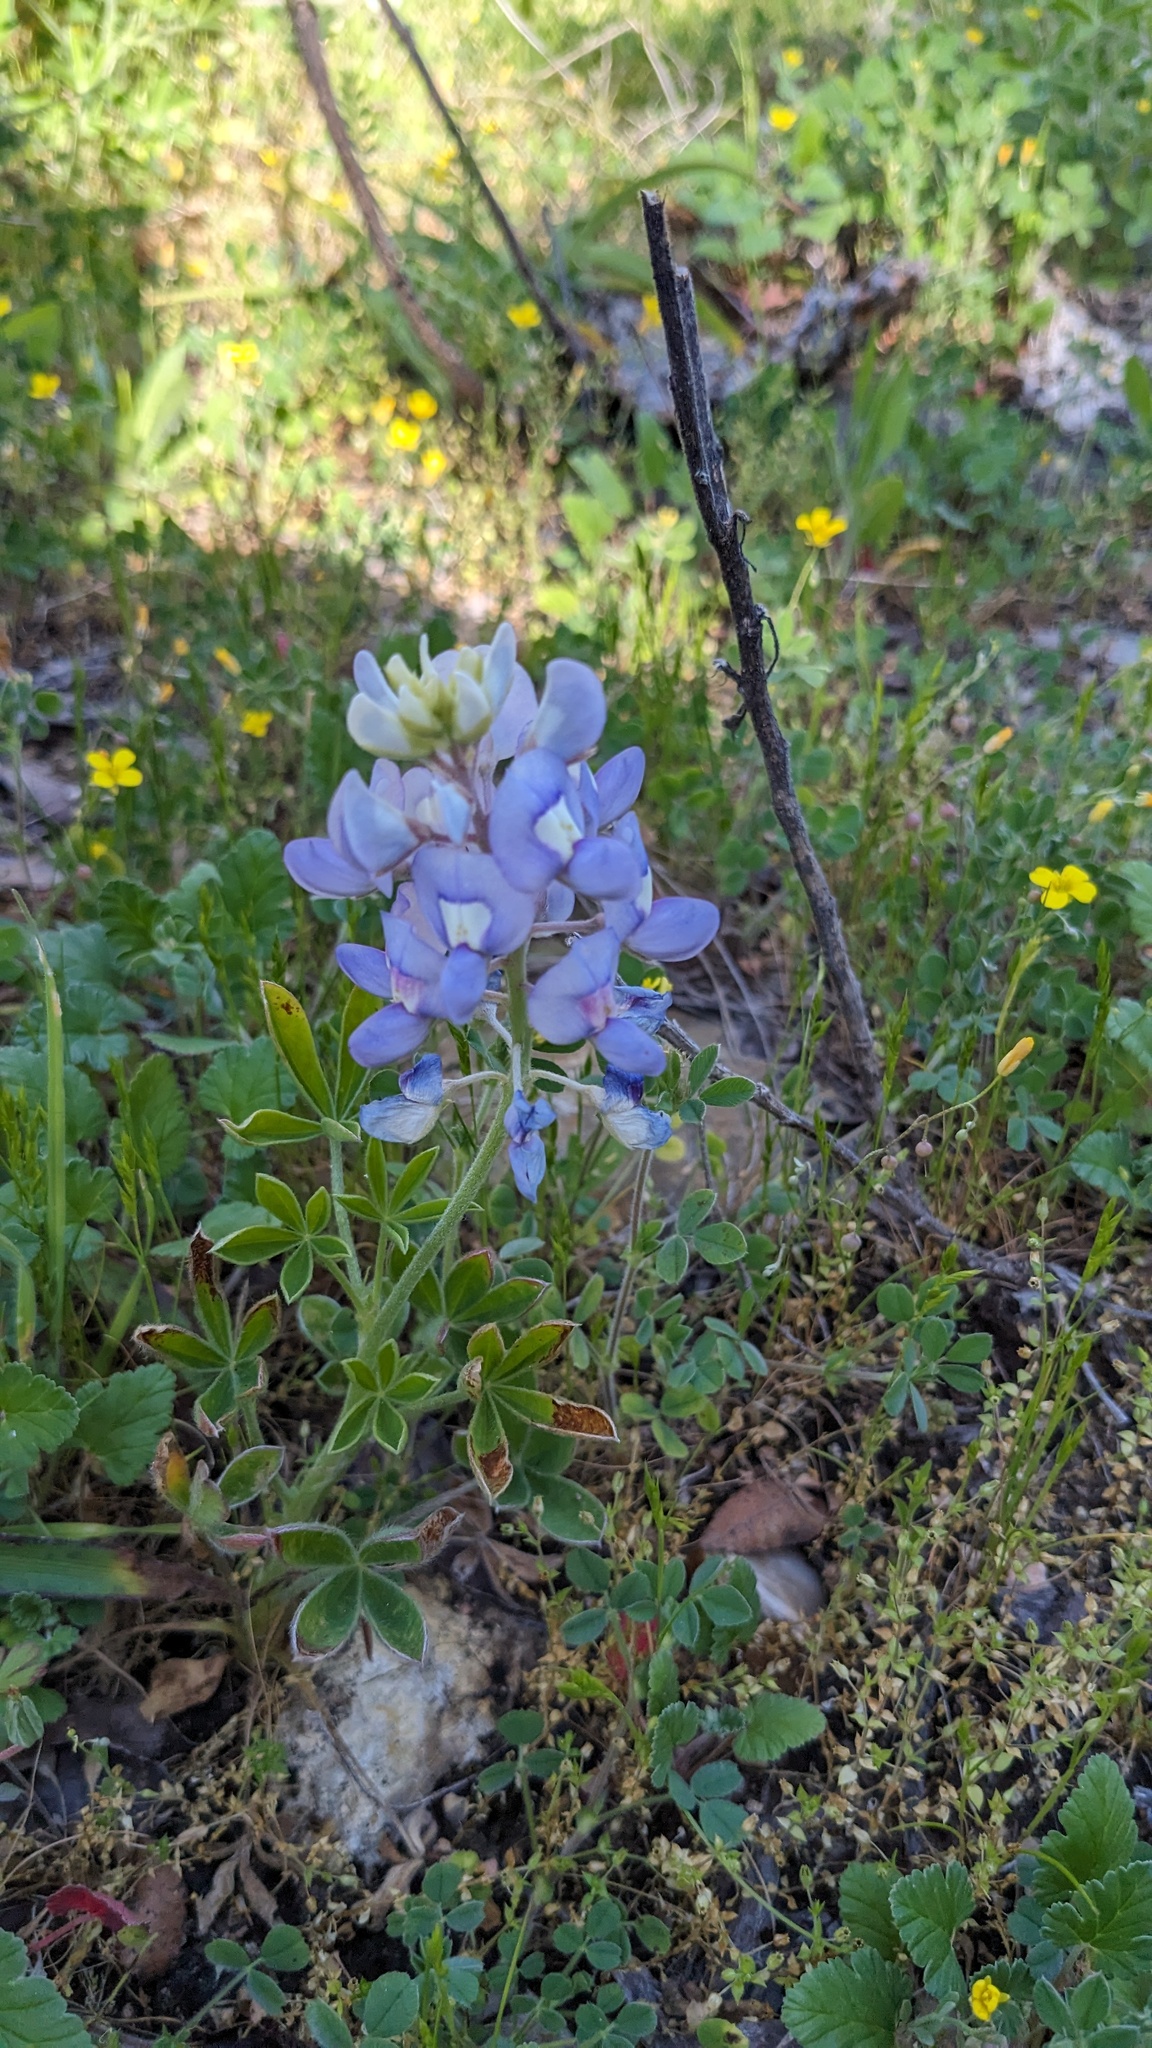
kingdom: Plantae
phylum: Tracheophyta
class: Magnoliopsida
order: Fabales
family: Fabaceae
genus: Lupinus
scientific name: Lupinus texensis
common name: Texas bluebonnet
